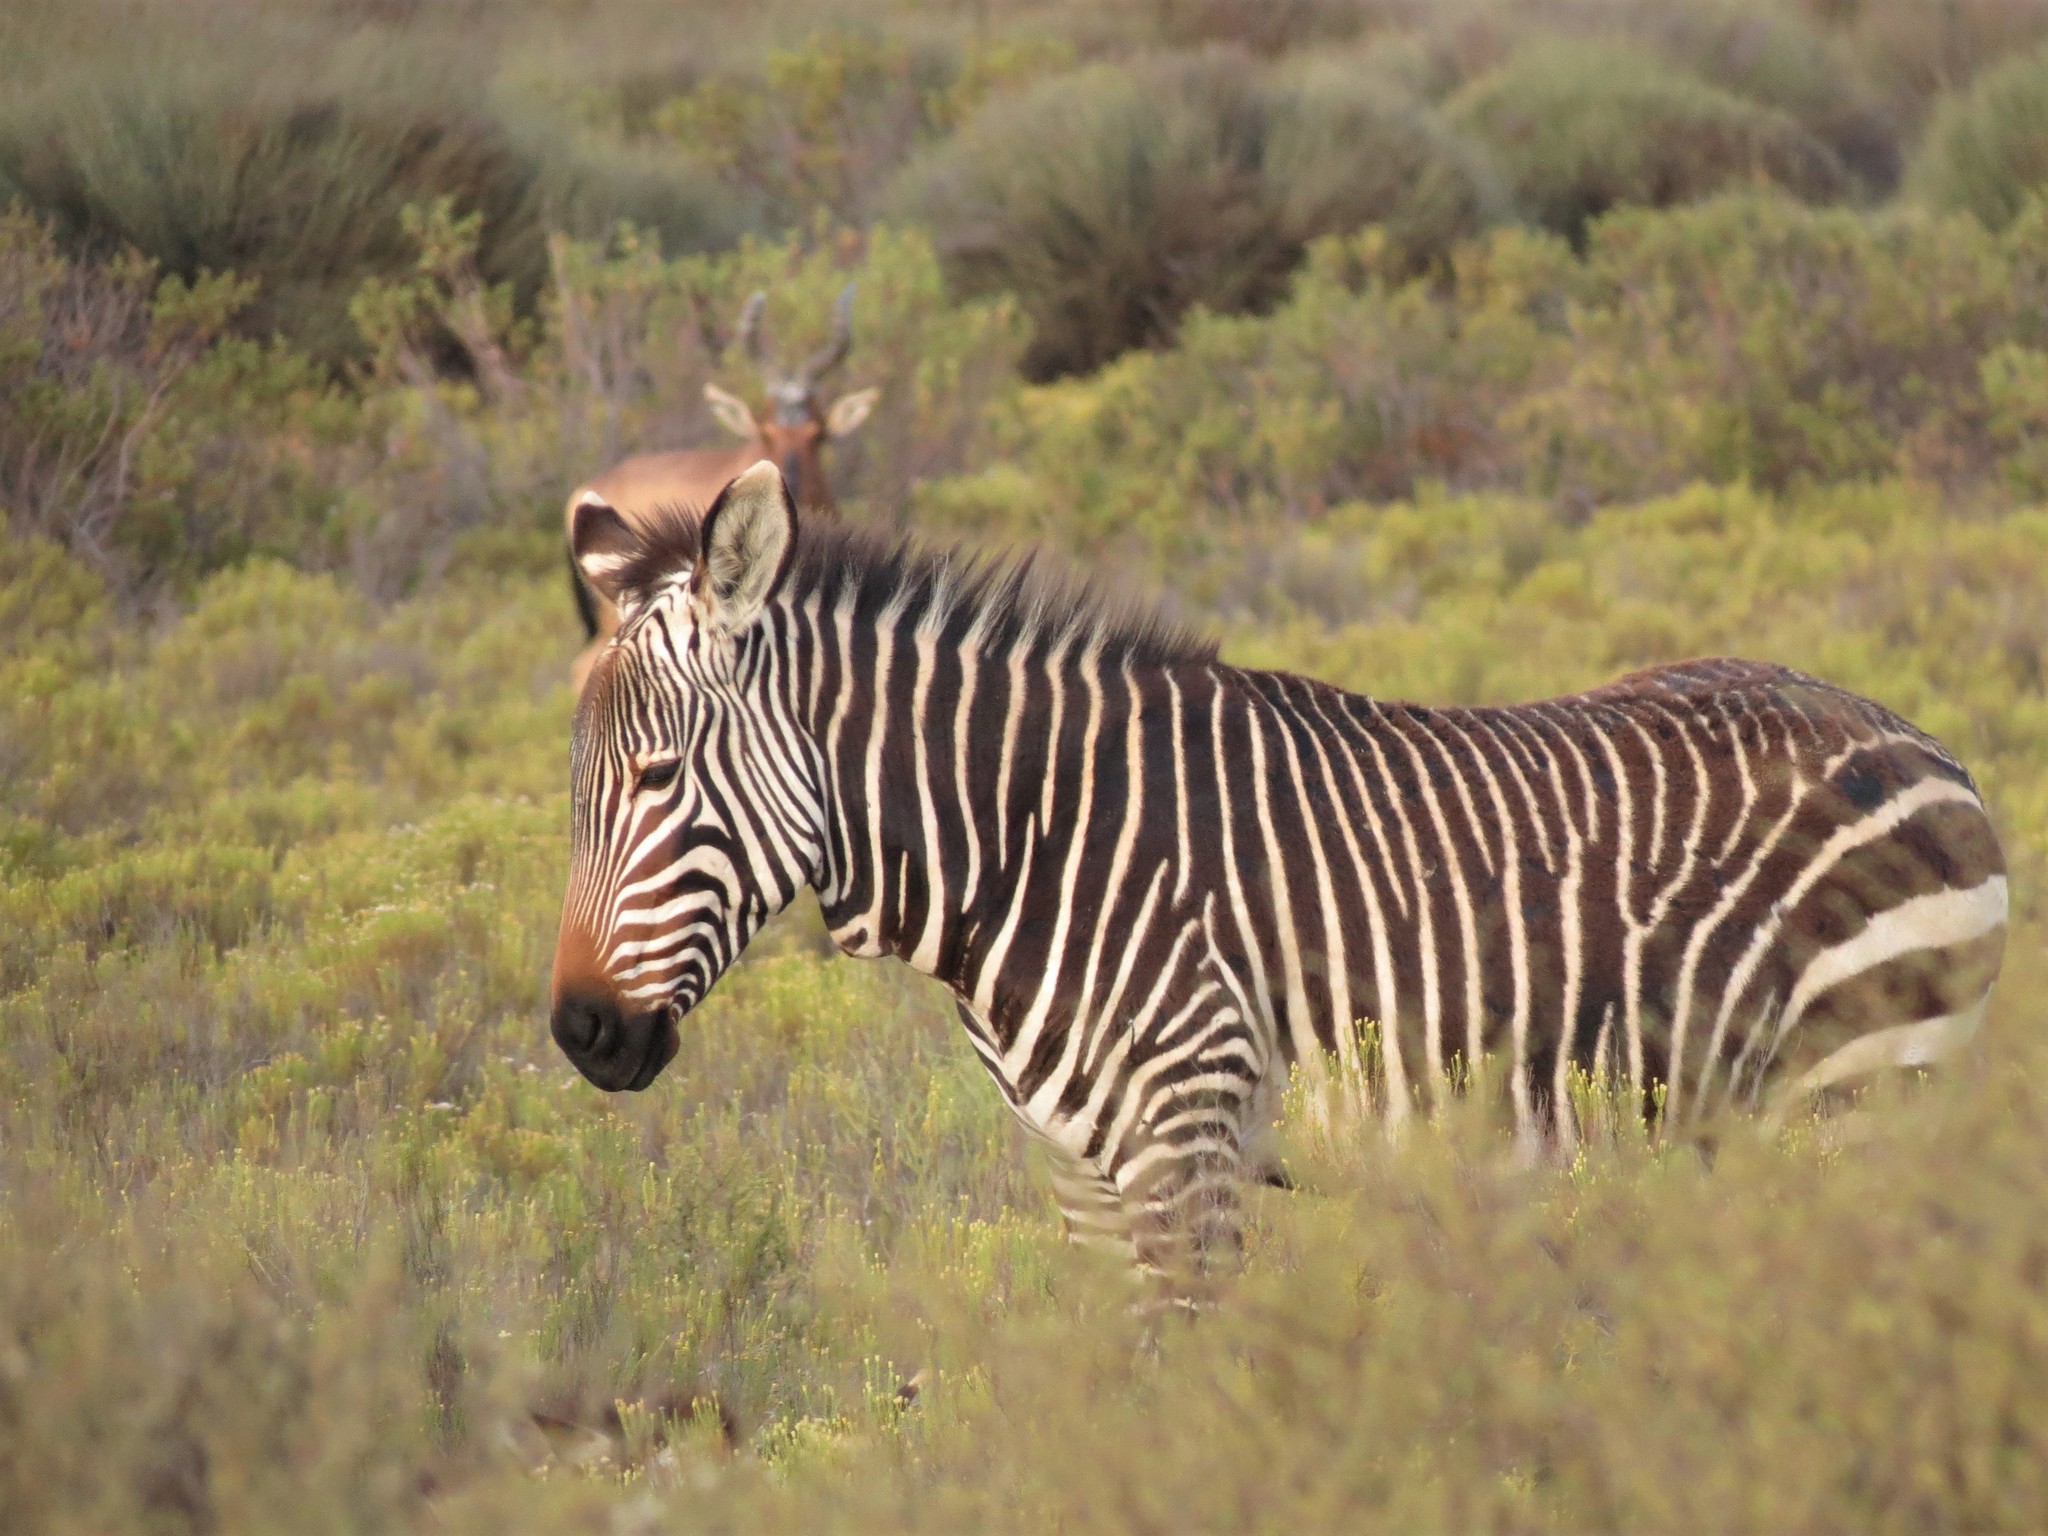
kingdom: Animalia
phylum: Chordata
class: Mammalia
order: Perissodactyla
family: Equidae
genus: Equus
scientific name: Equus zebra
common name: Mountain zebra
